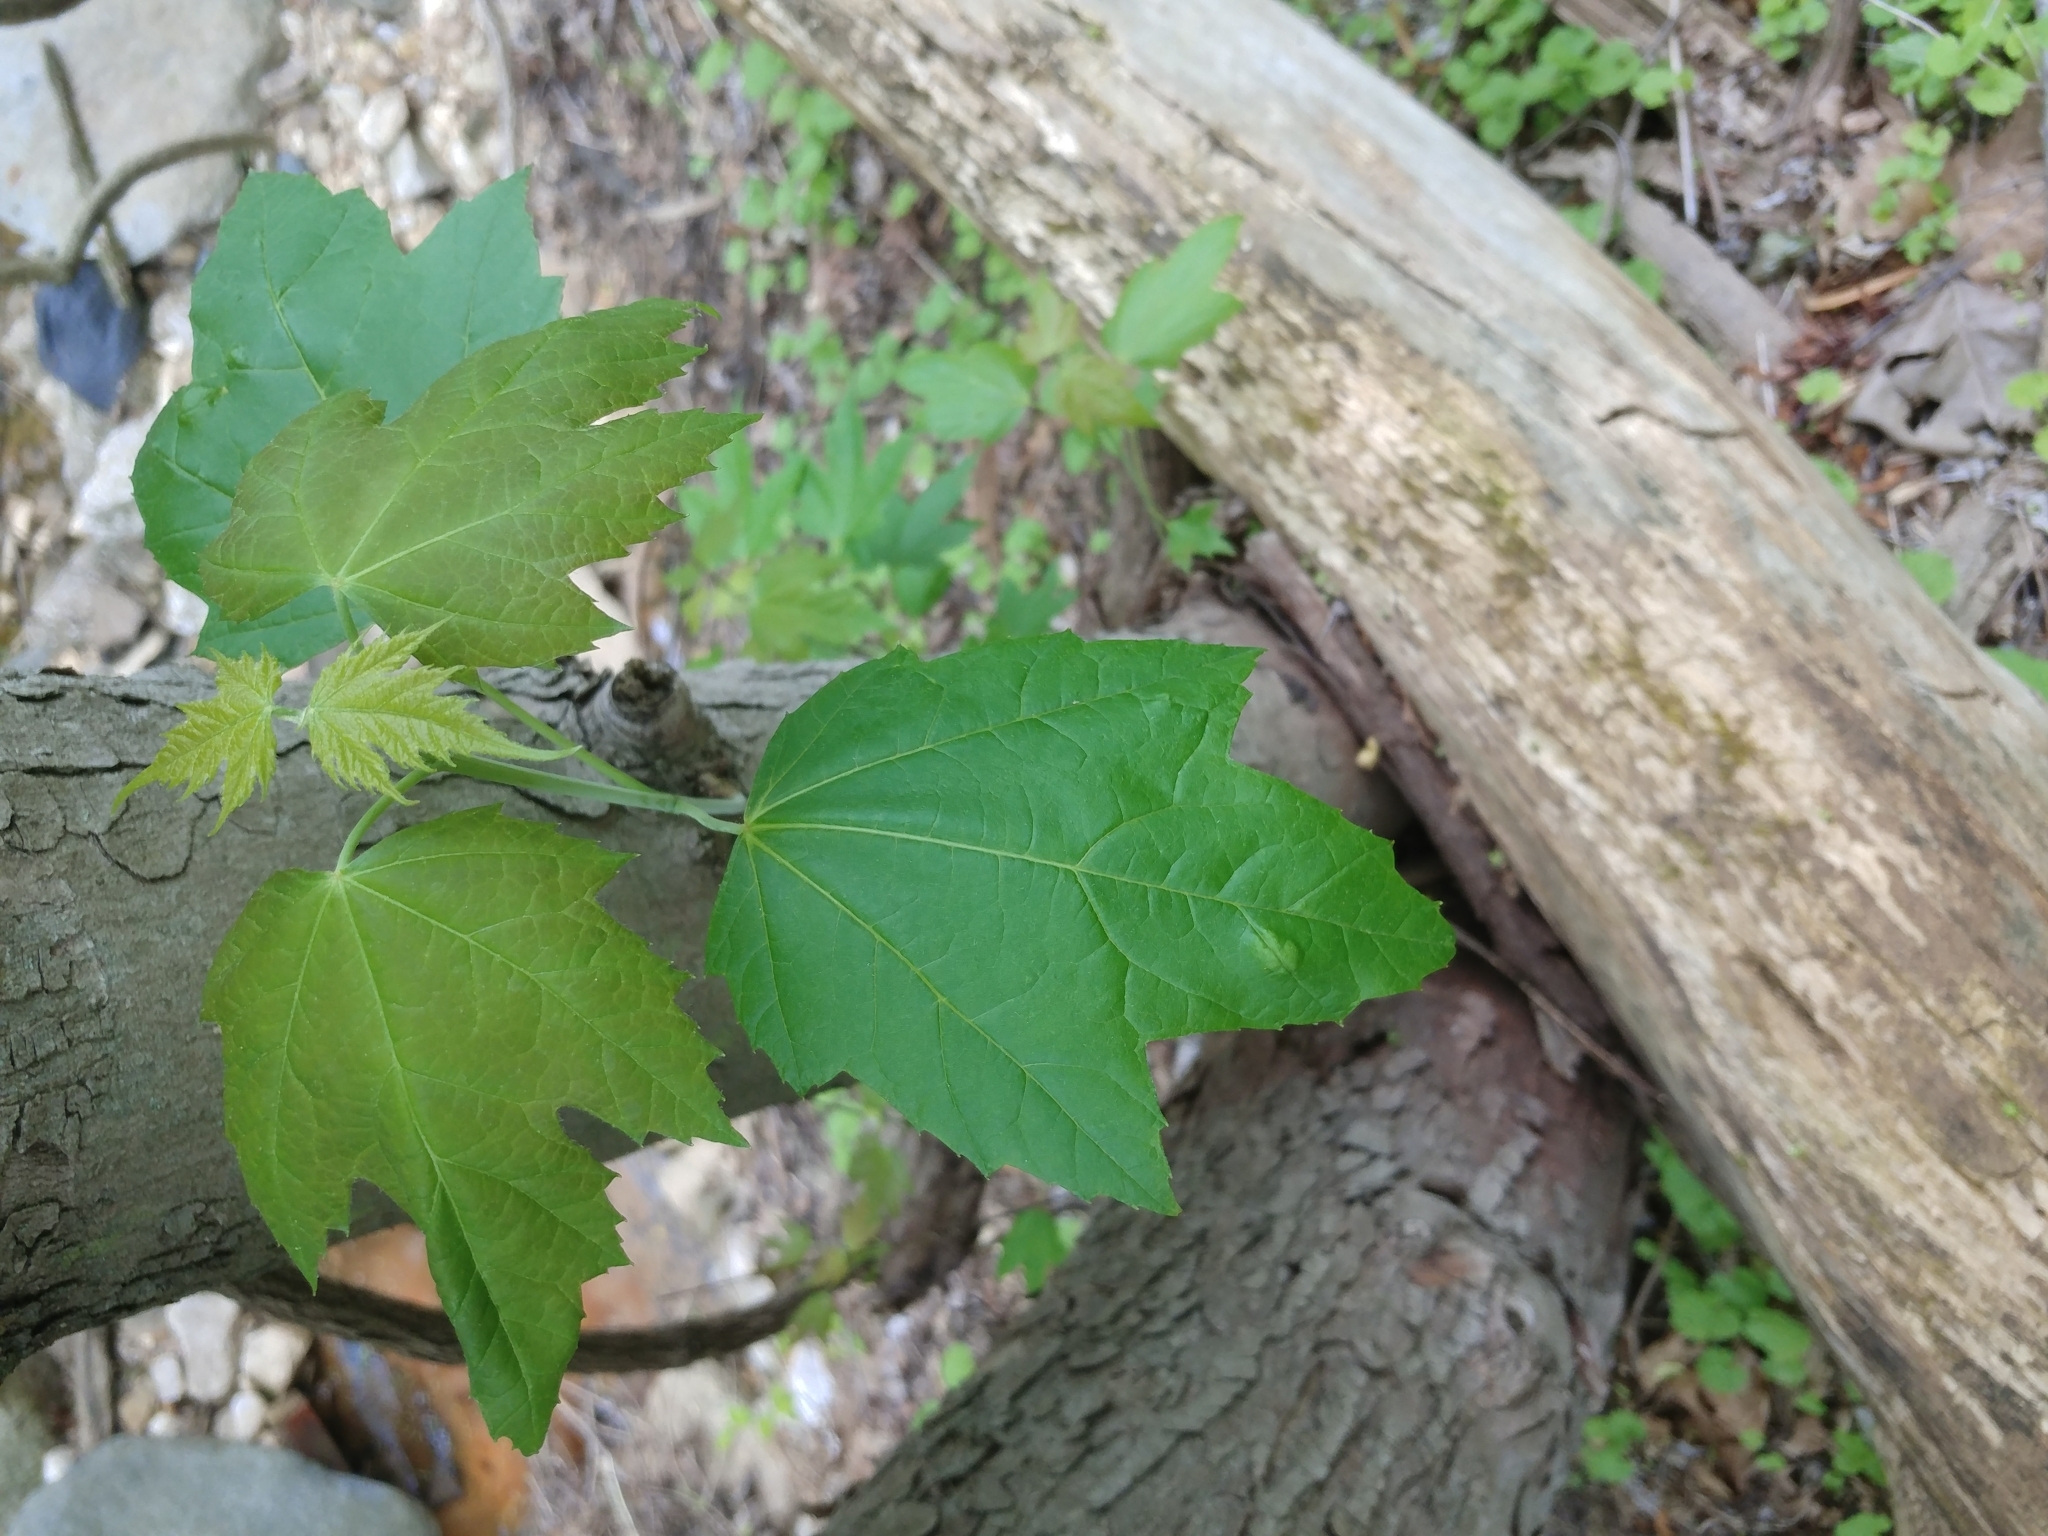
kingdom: Plantae
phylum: Tracheophyta
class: Magnoliopsida
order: Sapindales
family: Sapindaceae
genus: Acer
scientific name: Acer saccharinum
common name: Silver maple
